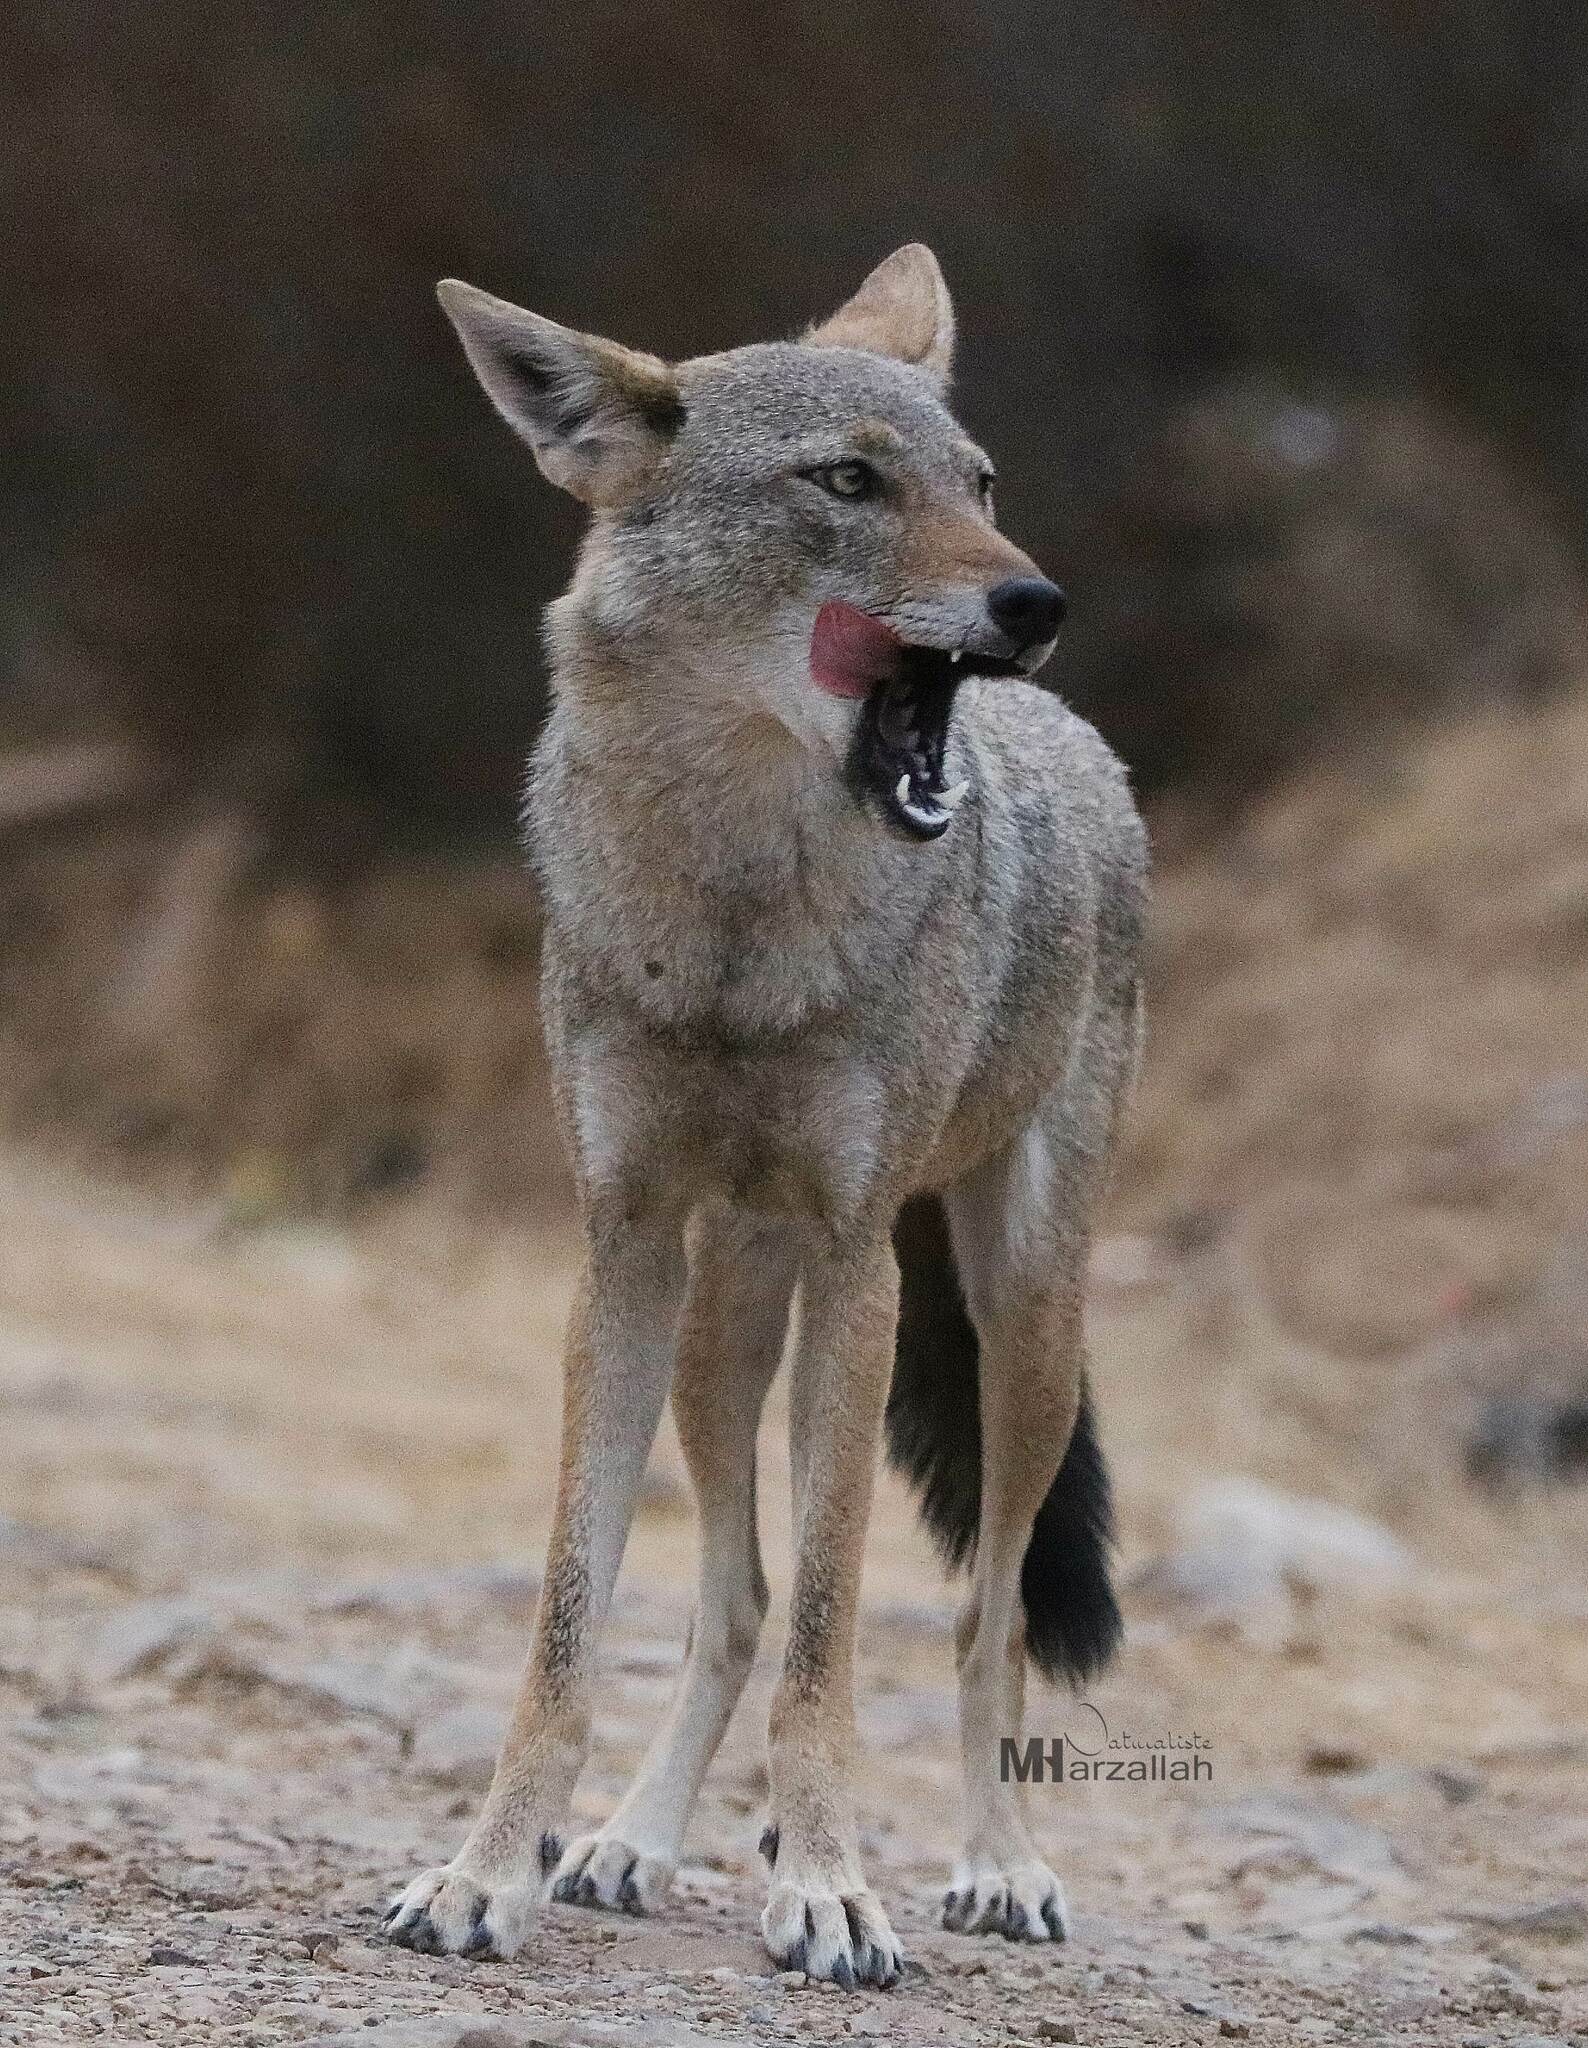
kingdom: Animalia
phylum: Chordata
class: Mammalia
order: Carnivora
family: Canidae
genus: Canis
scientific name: Canis lupaster
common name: African golden wolf
